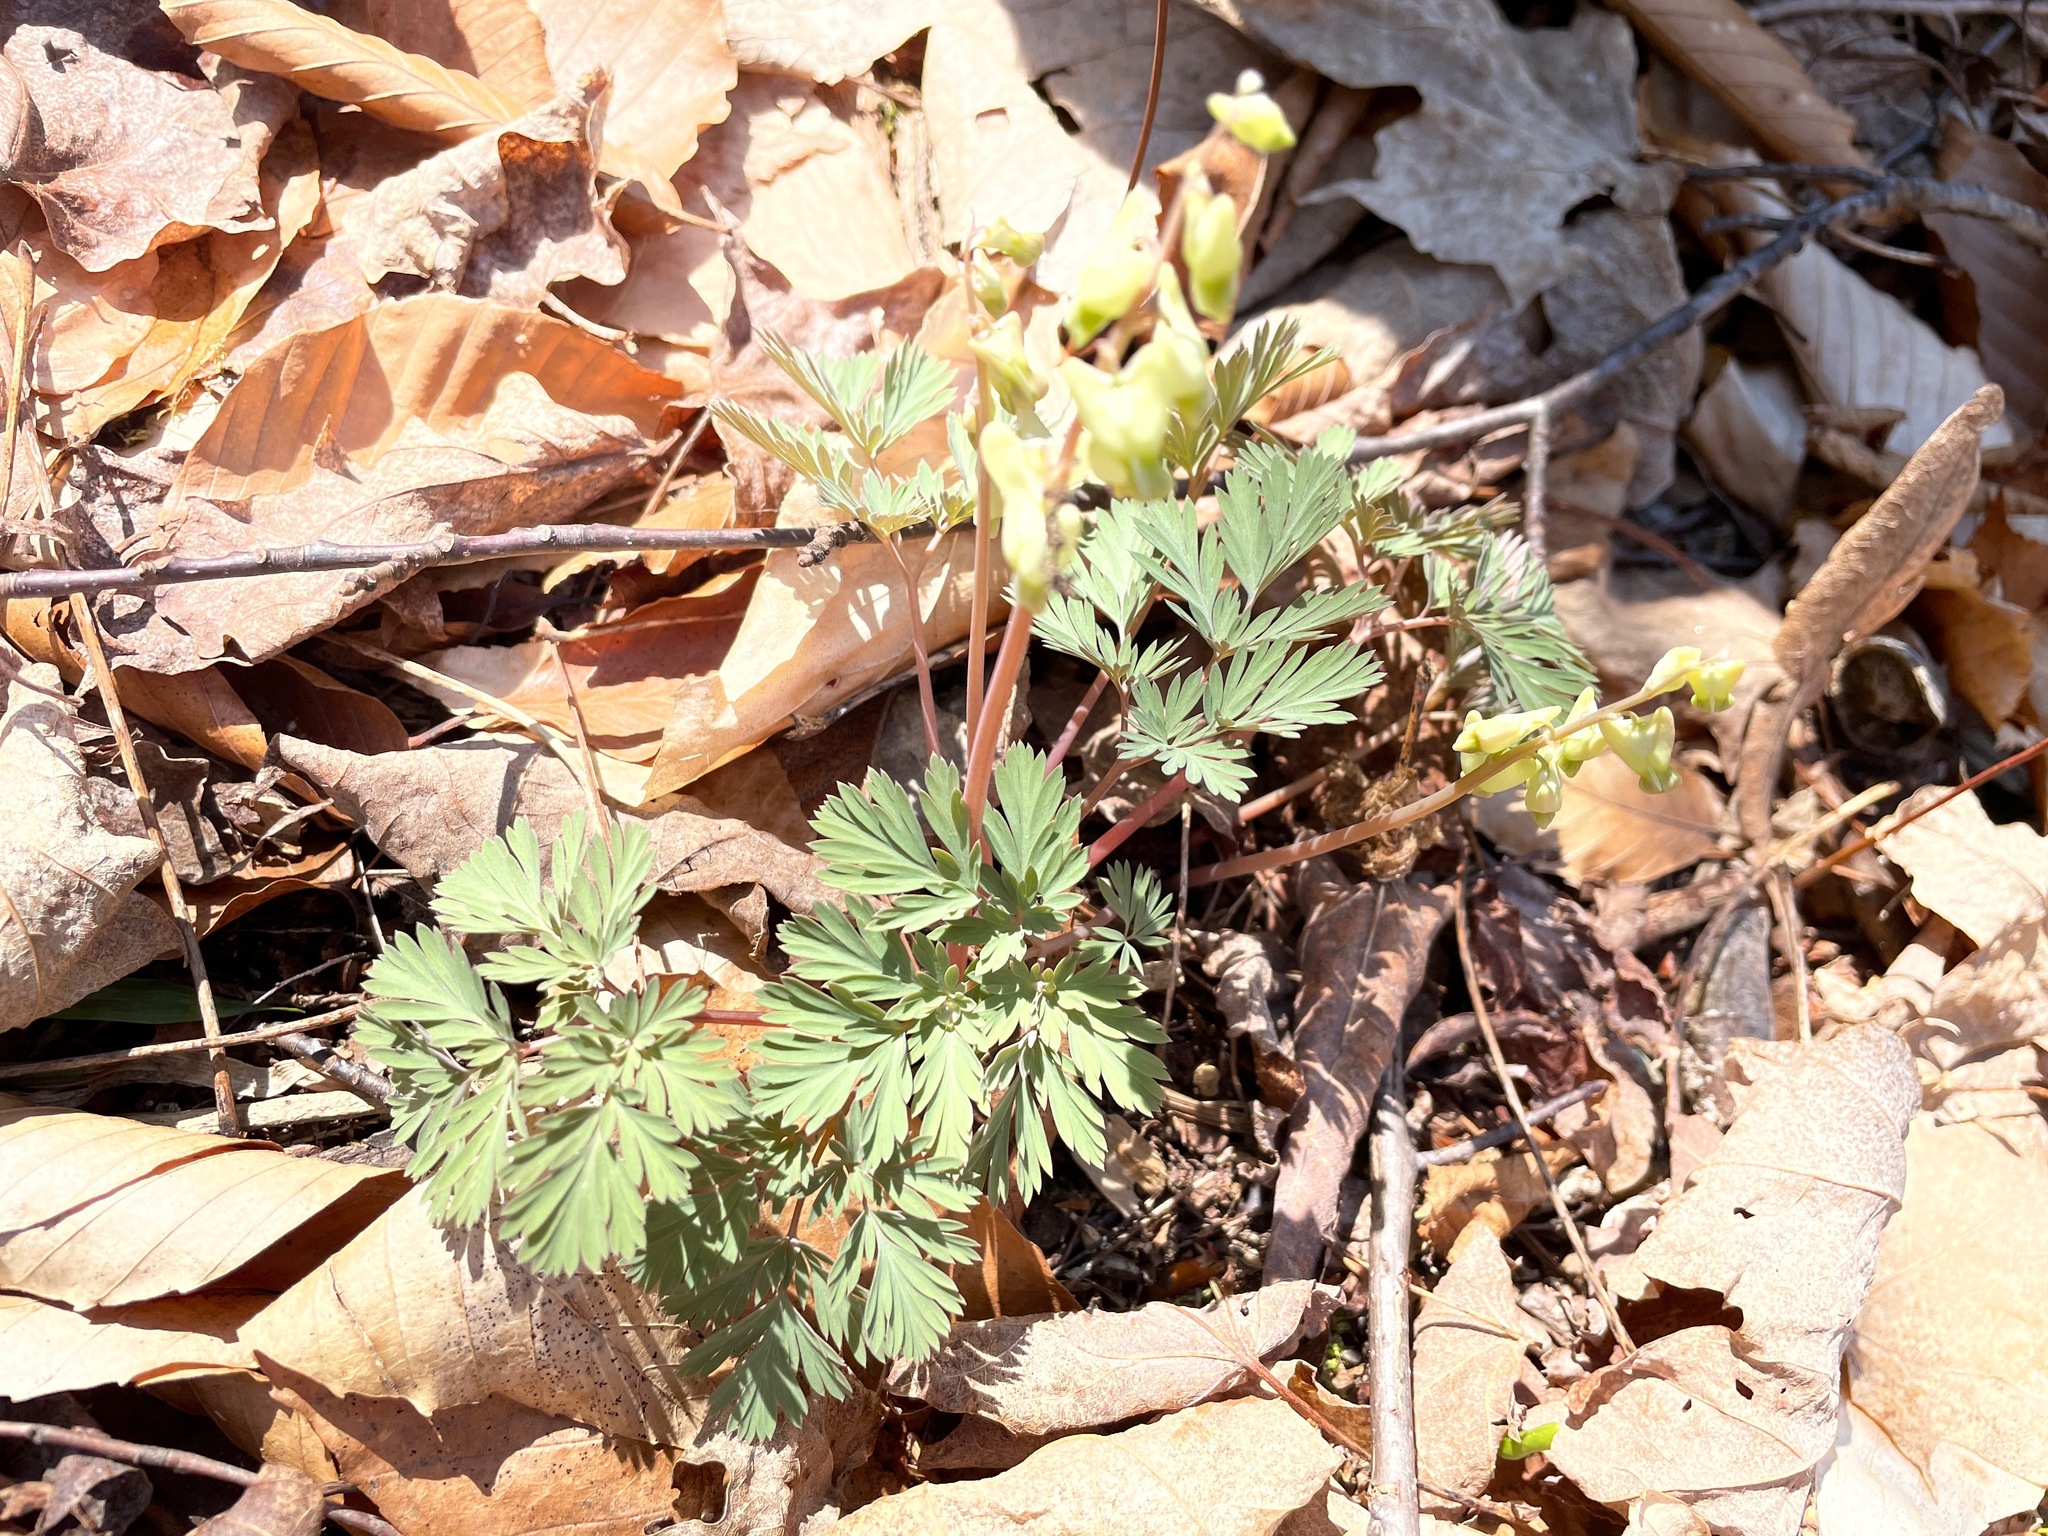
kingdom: Plantae
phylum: Tracheophyta
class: Magnoliopsida
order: Ranunculales
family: Papaveraceae
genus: Dicentra
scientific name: Dicentra cucullaria
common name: Dutchman's breeches
